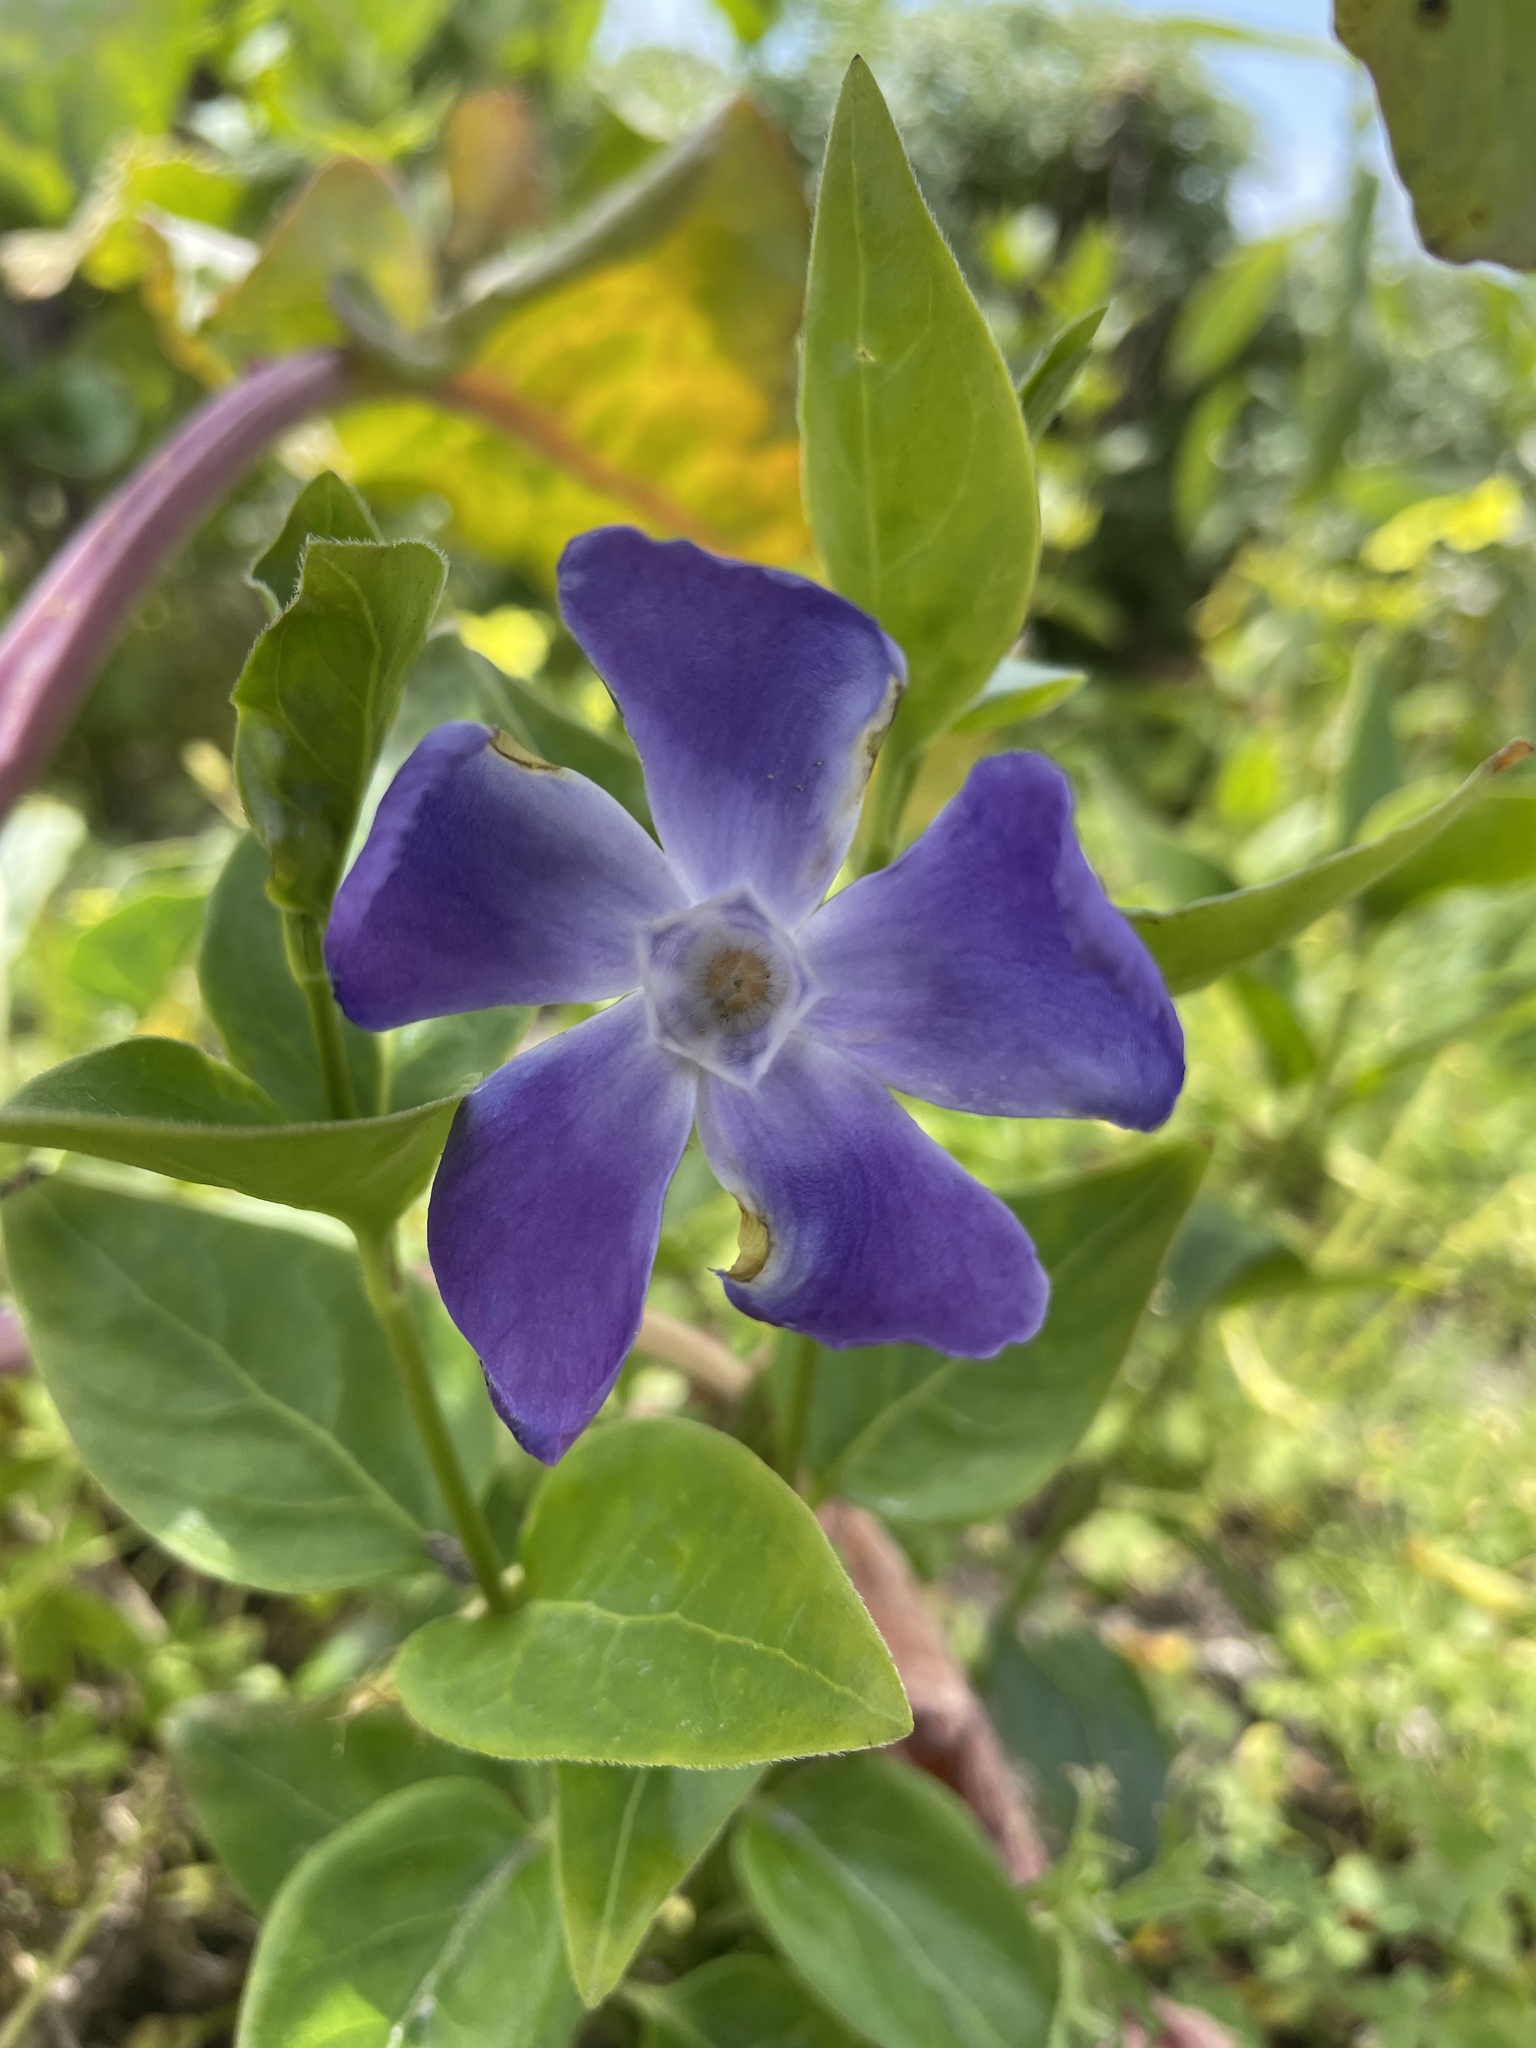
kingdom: Plantae
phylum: Tracheophyta
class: Magnoliopsida
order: Gentianales
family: Apocynaceae
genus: Vinca
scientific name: Vinca major
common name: Greater periwinkle
